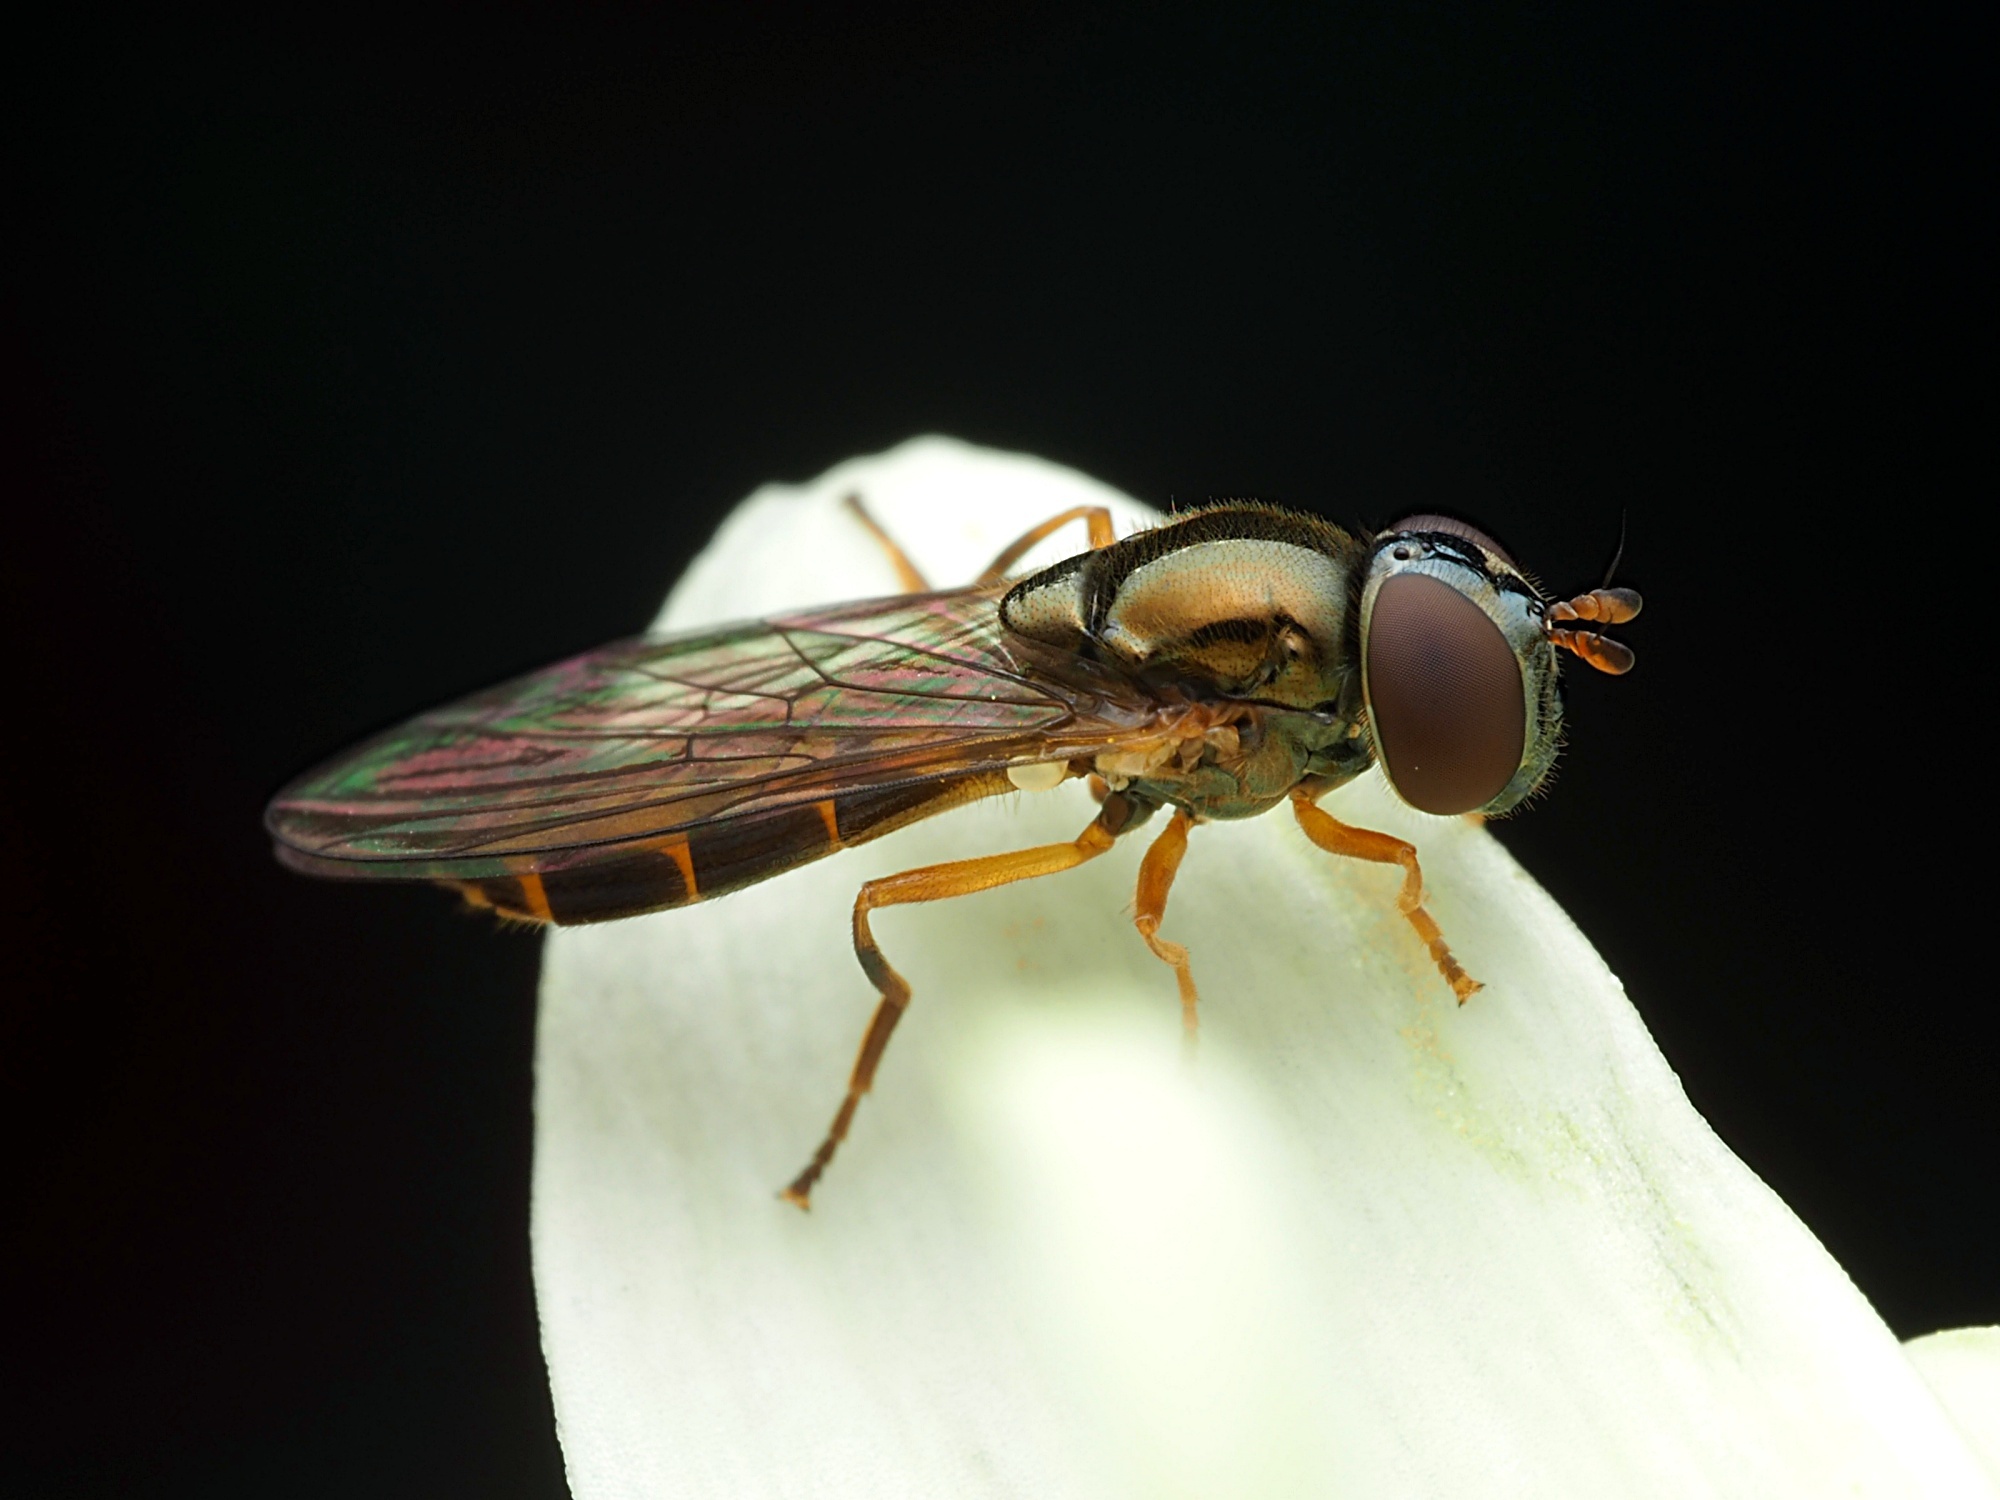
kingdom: Animalia
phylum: Arthropoda
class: Insecta
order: Diptera
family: Syrphidae
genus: Melanostoma
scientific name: Melanostoma fasciatum
